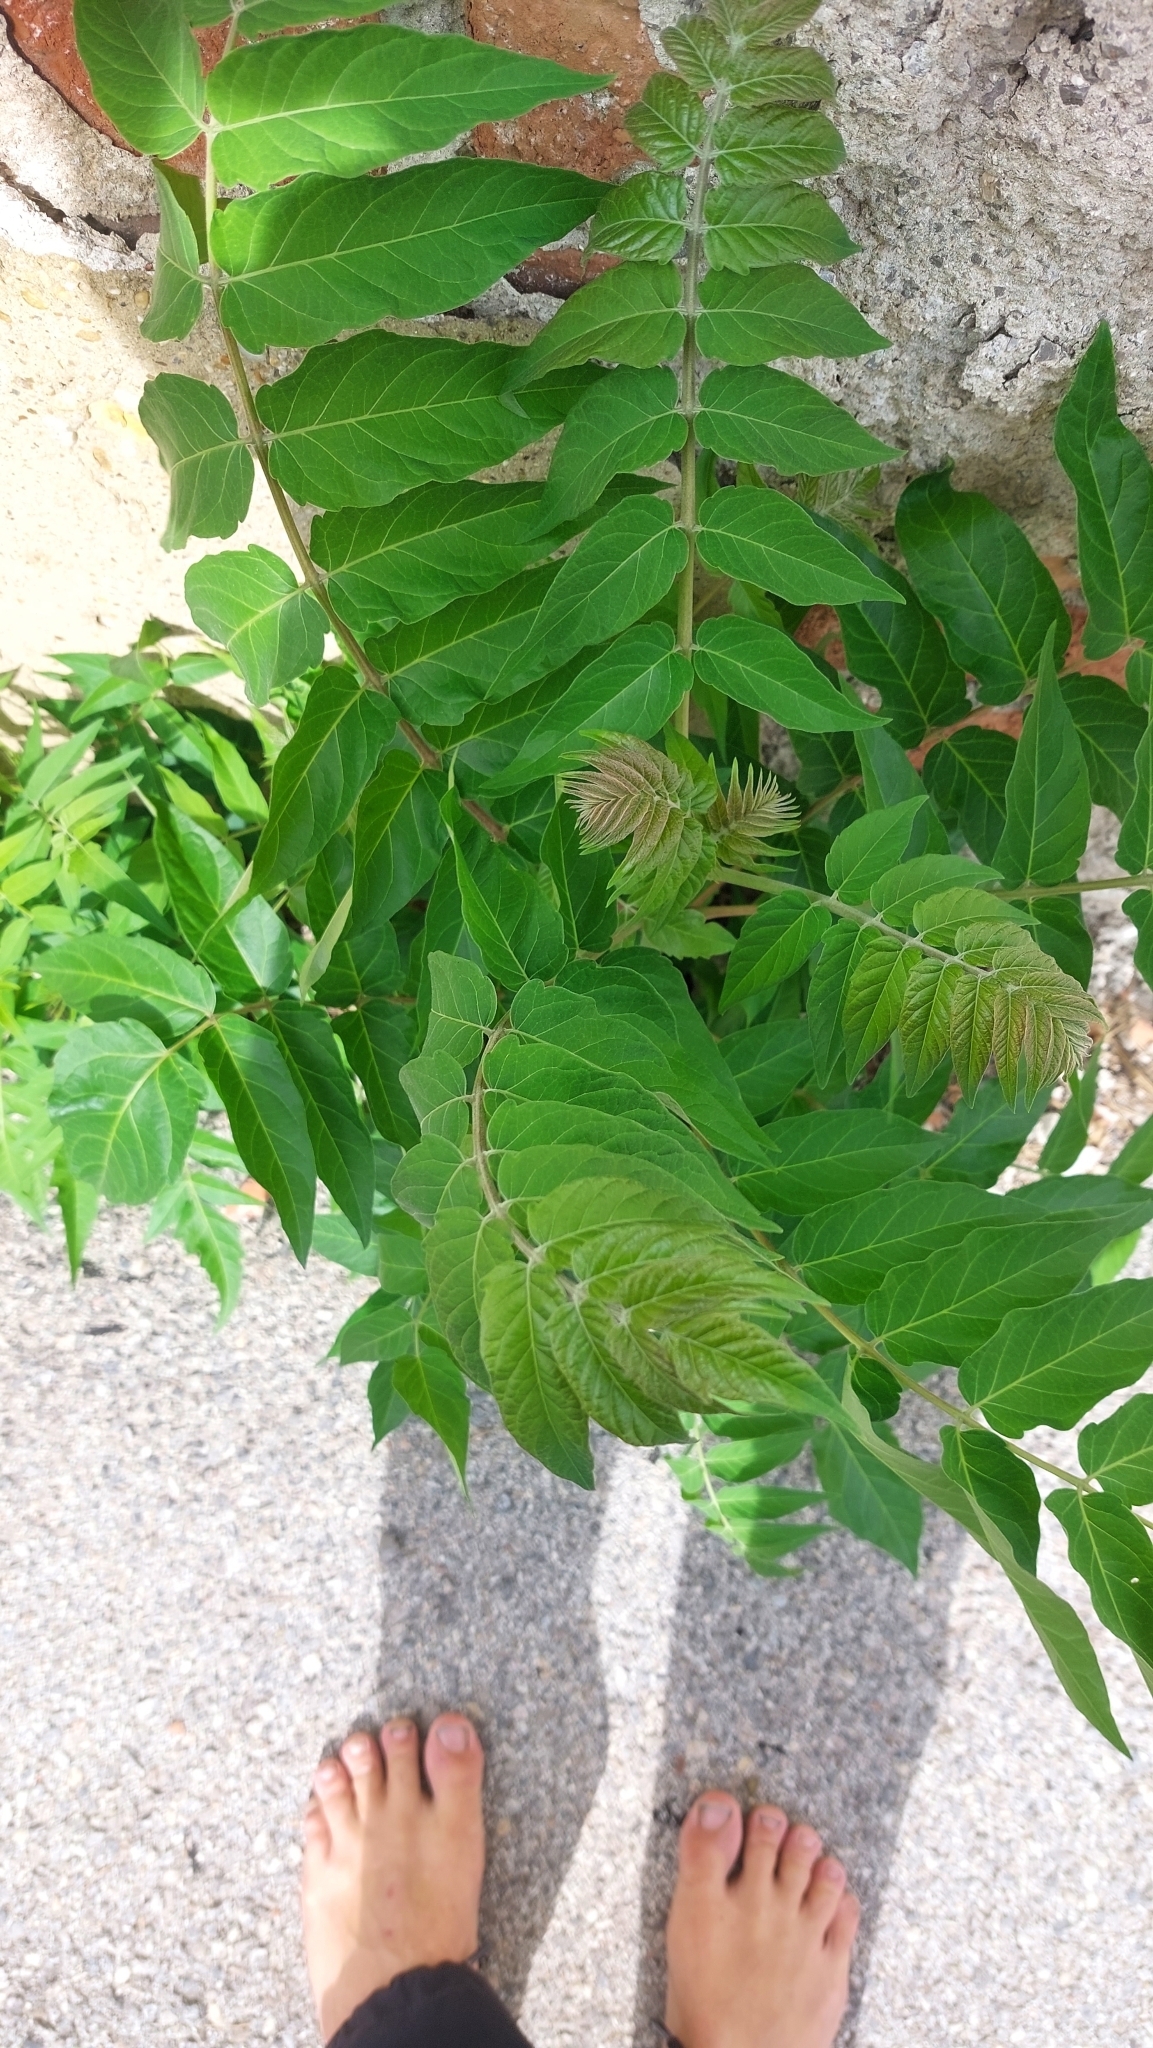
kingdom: Plantae
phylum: Tracheophyta
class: Magnoliopsida
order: Sapindales
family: Simaroubaceae
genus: Ailanthus
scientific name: Ailanthus altissima
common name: Tree-of-heaven
